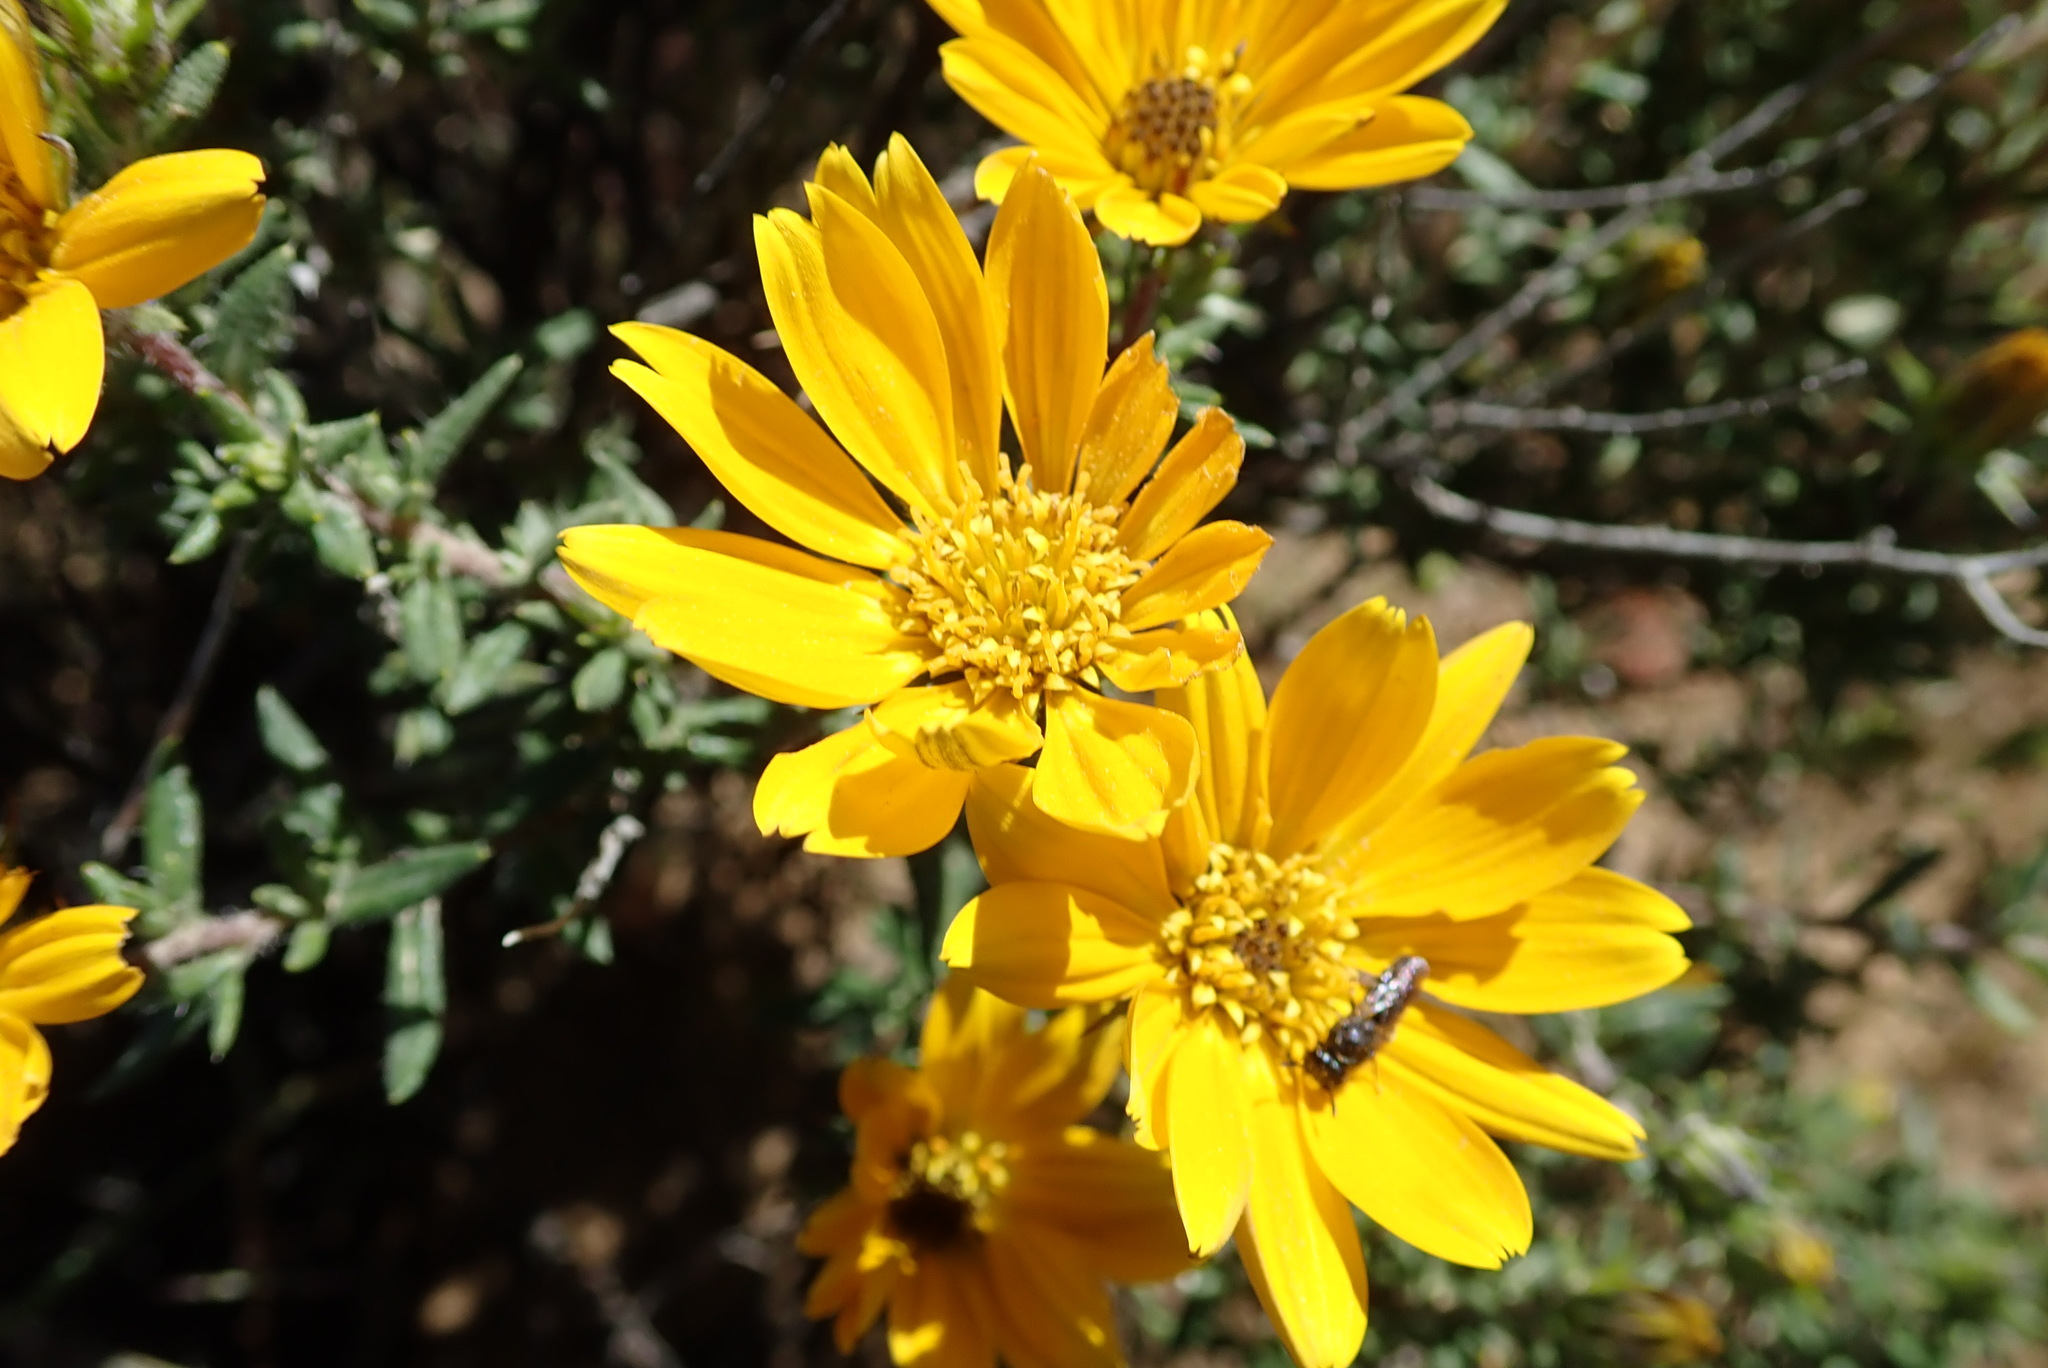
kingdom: Plantae
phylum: Tracheophyta
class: Magnoliopsida
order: Asterales
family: Asteraceae
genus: Gorteria
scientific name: Gorteria alienata
